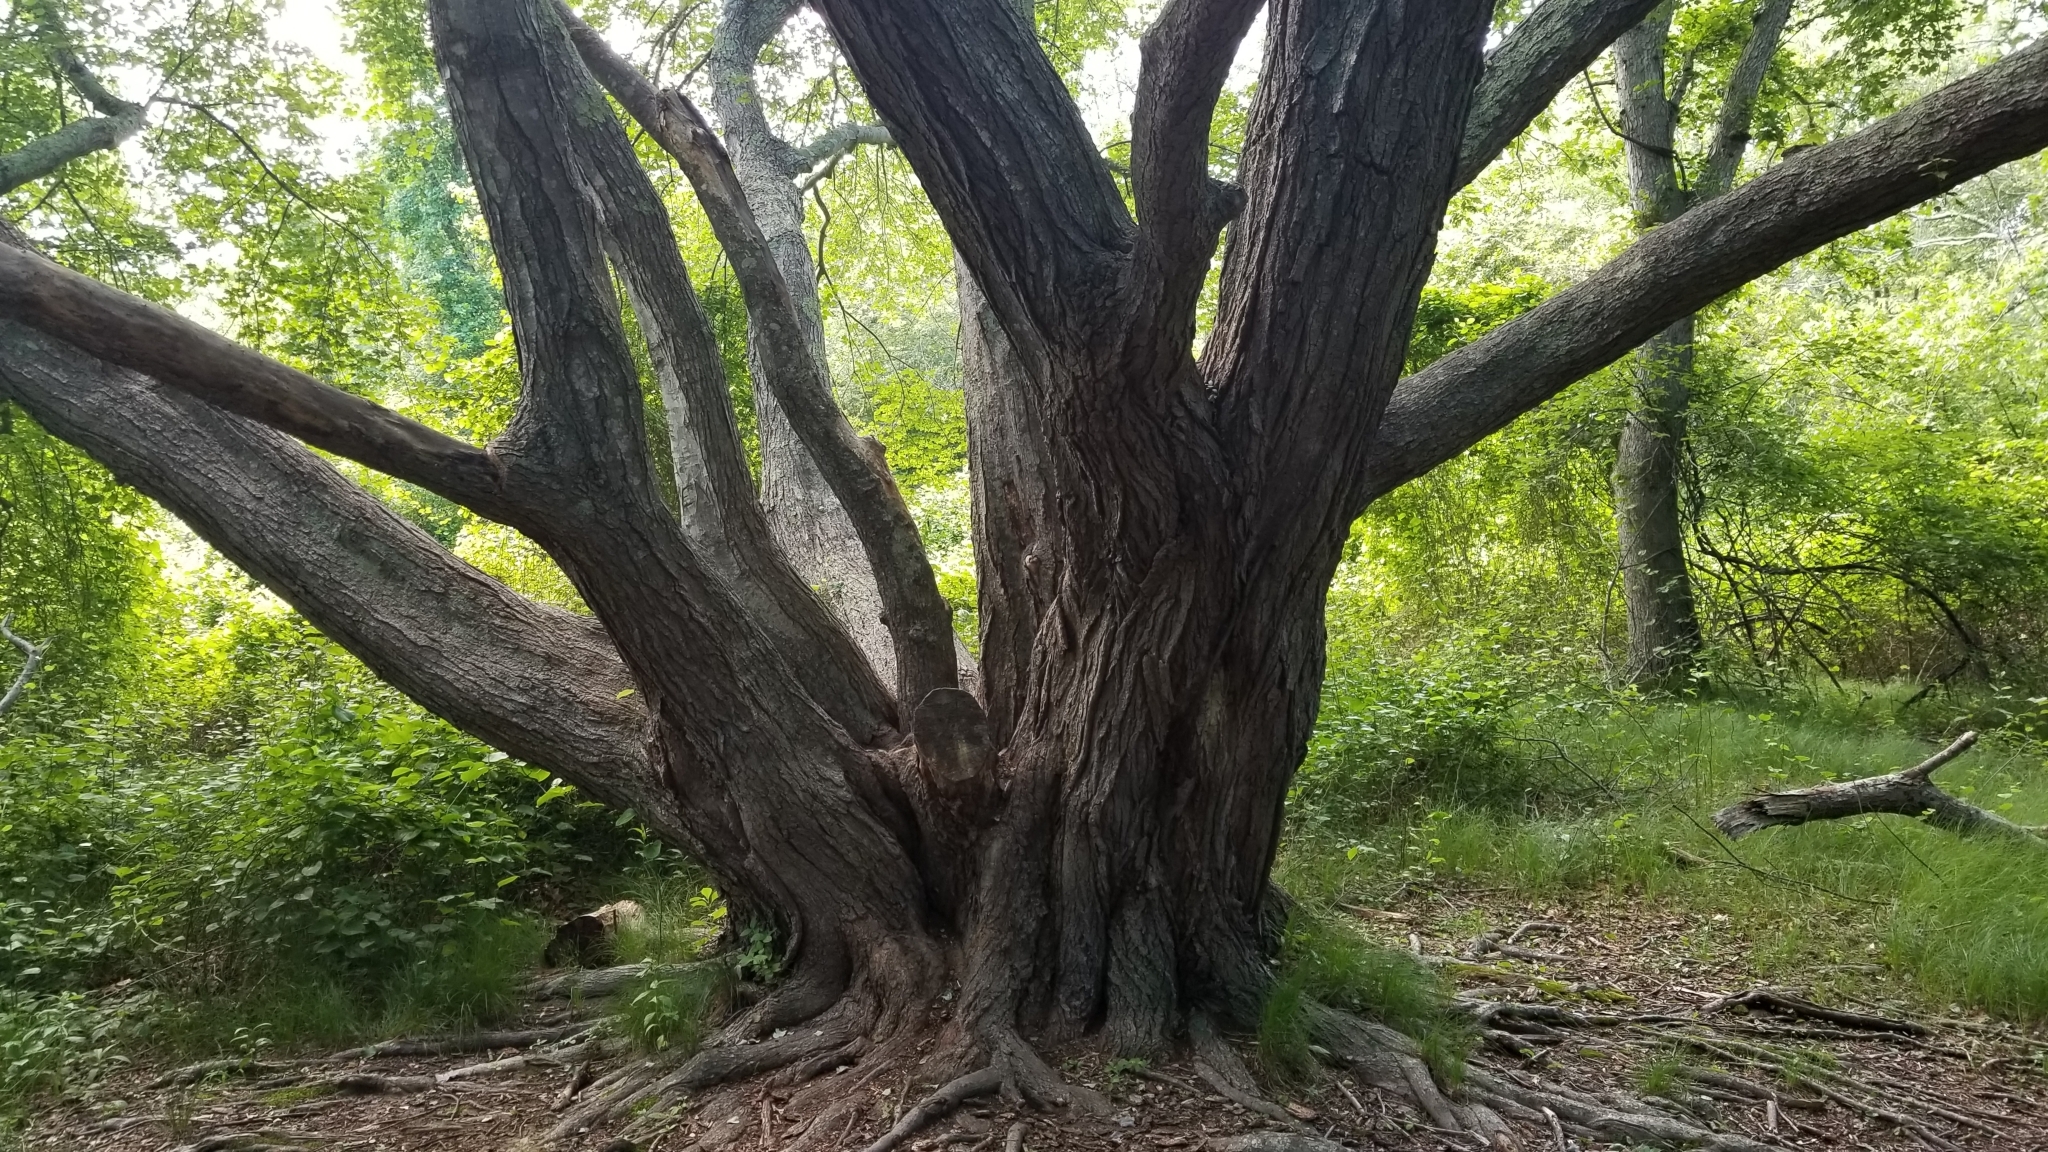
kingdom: Plantae
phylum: Tracheophyta
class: Magnoliopsida
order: Sapindales
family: Sapindaceae
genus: Acer
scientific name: Acer rubrum
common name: Red maple
